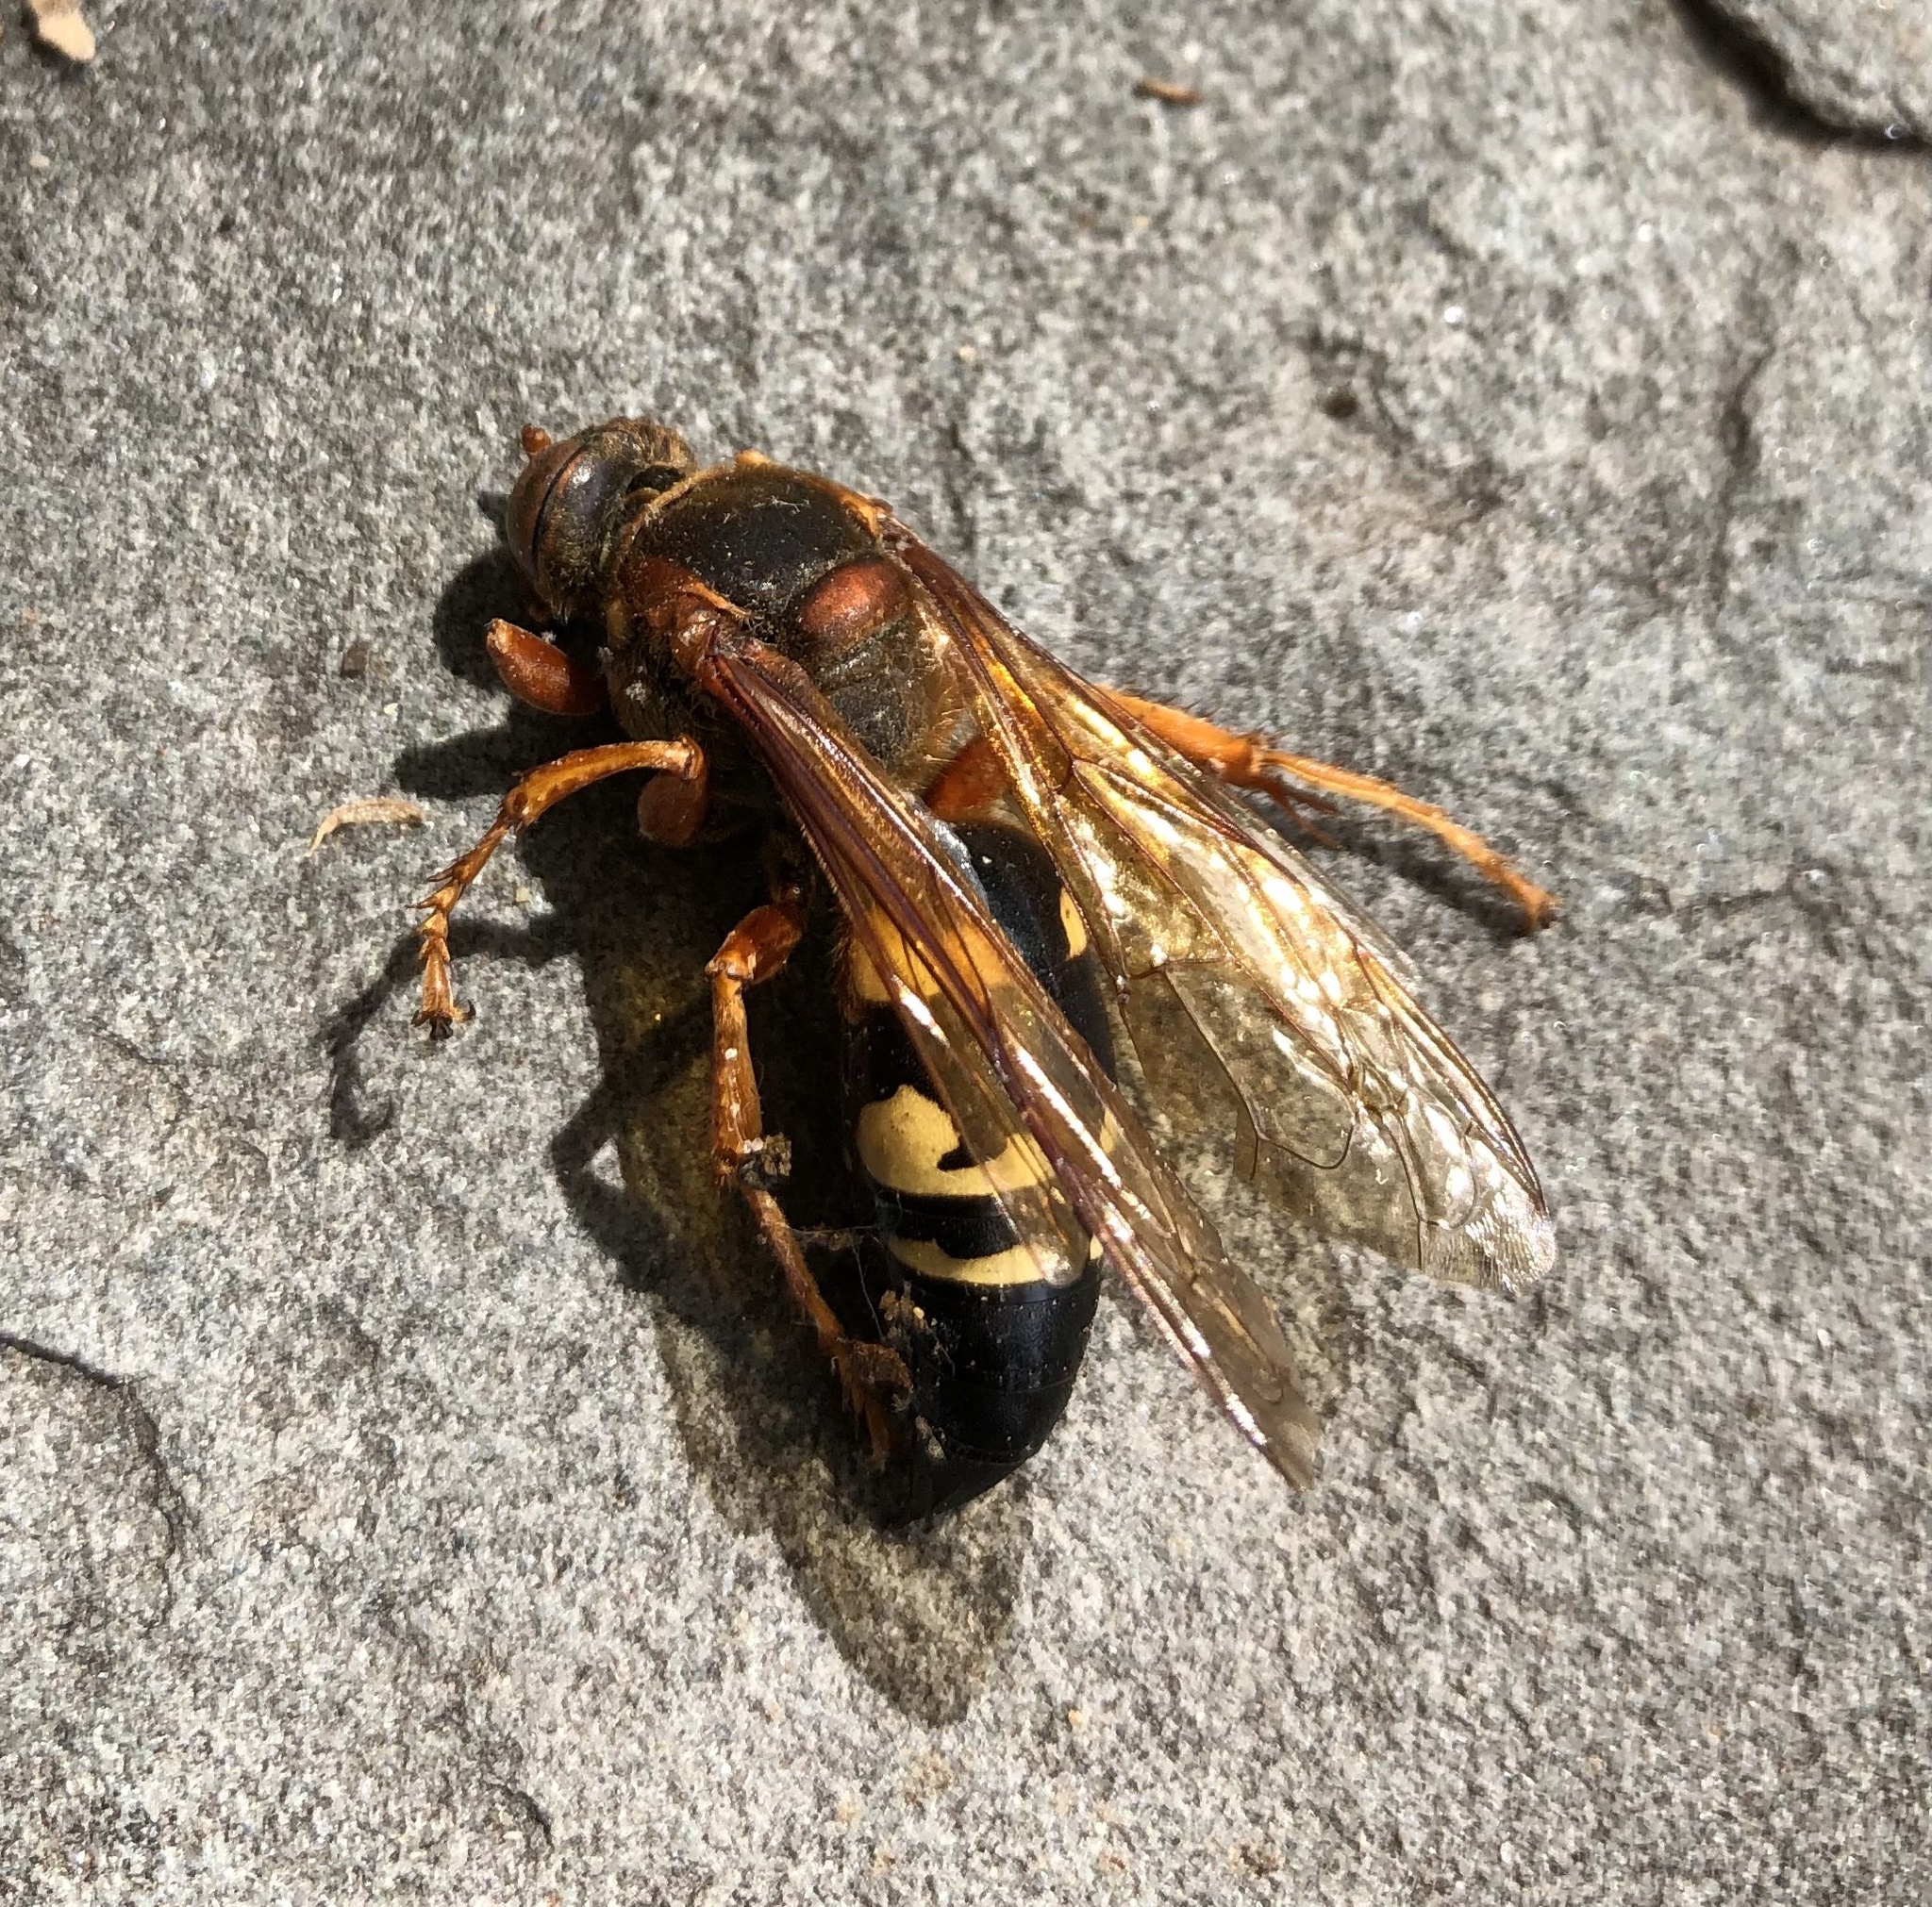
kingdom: Animalia
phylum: Arthropoda
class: Insecta
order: Hymenoptera
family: Crabronidae
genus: Sphecius
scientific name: Sphecius speciosus
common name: Cicada killer
